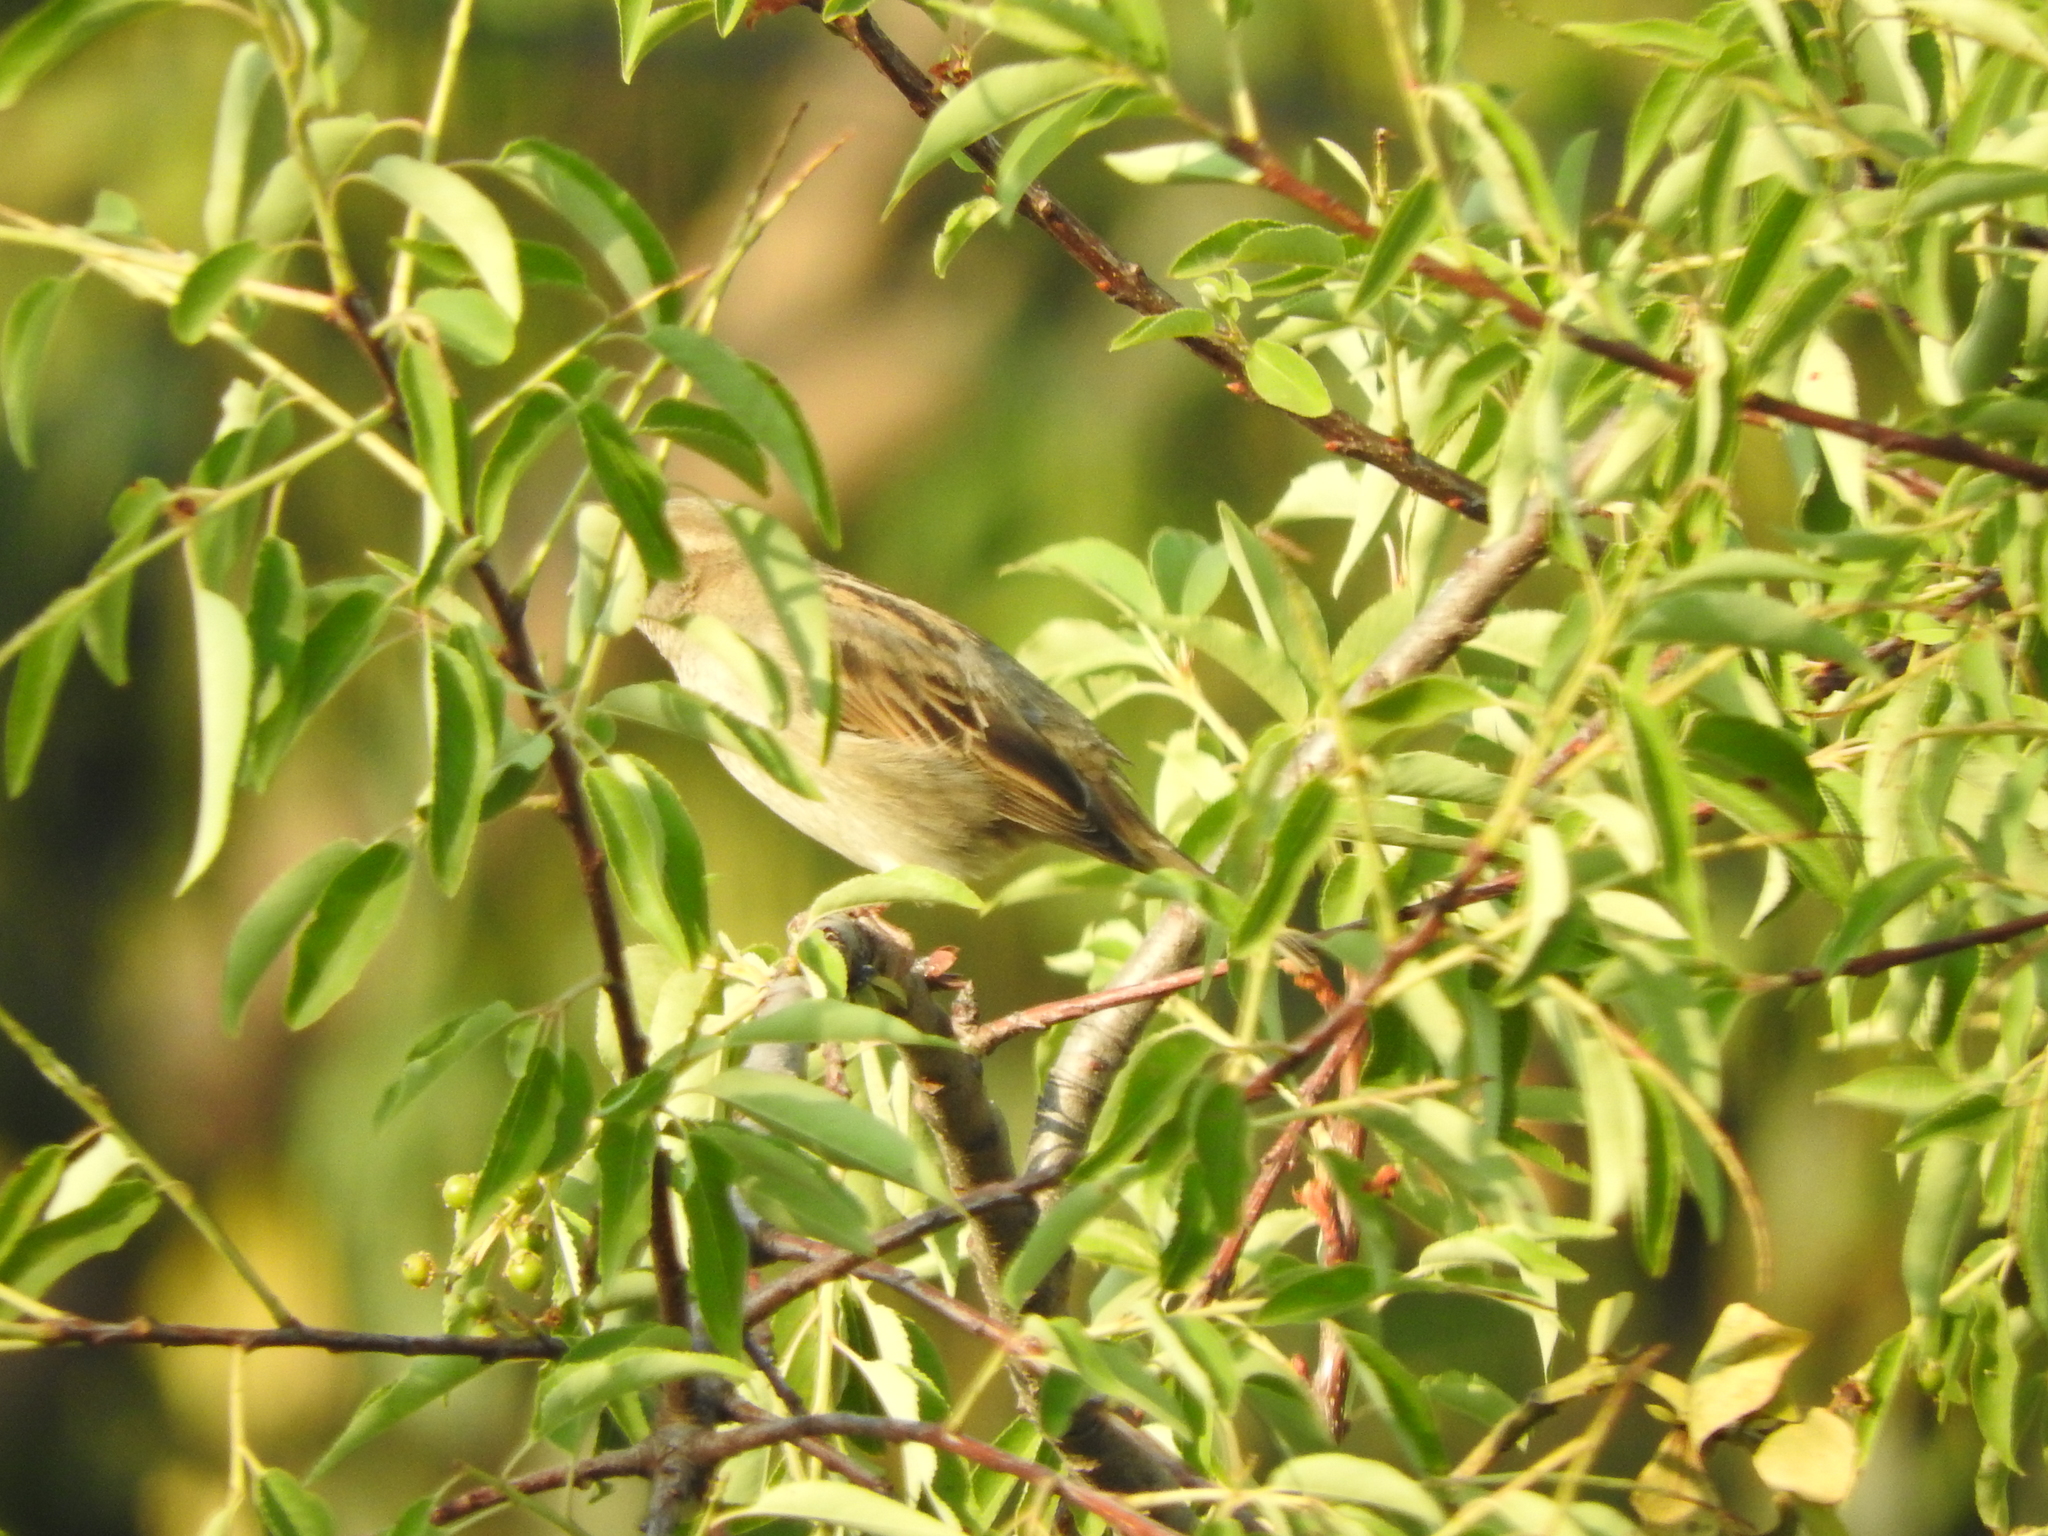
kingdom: Animalia
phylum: Chordata
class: Aves
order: Passeriformes
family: Passeridae
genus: Passer
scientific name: Passer domesticus
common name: House sparrow
